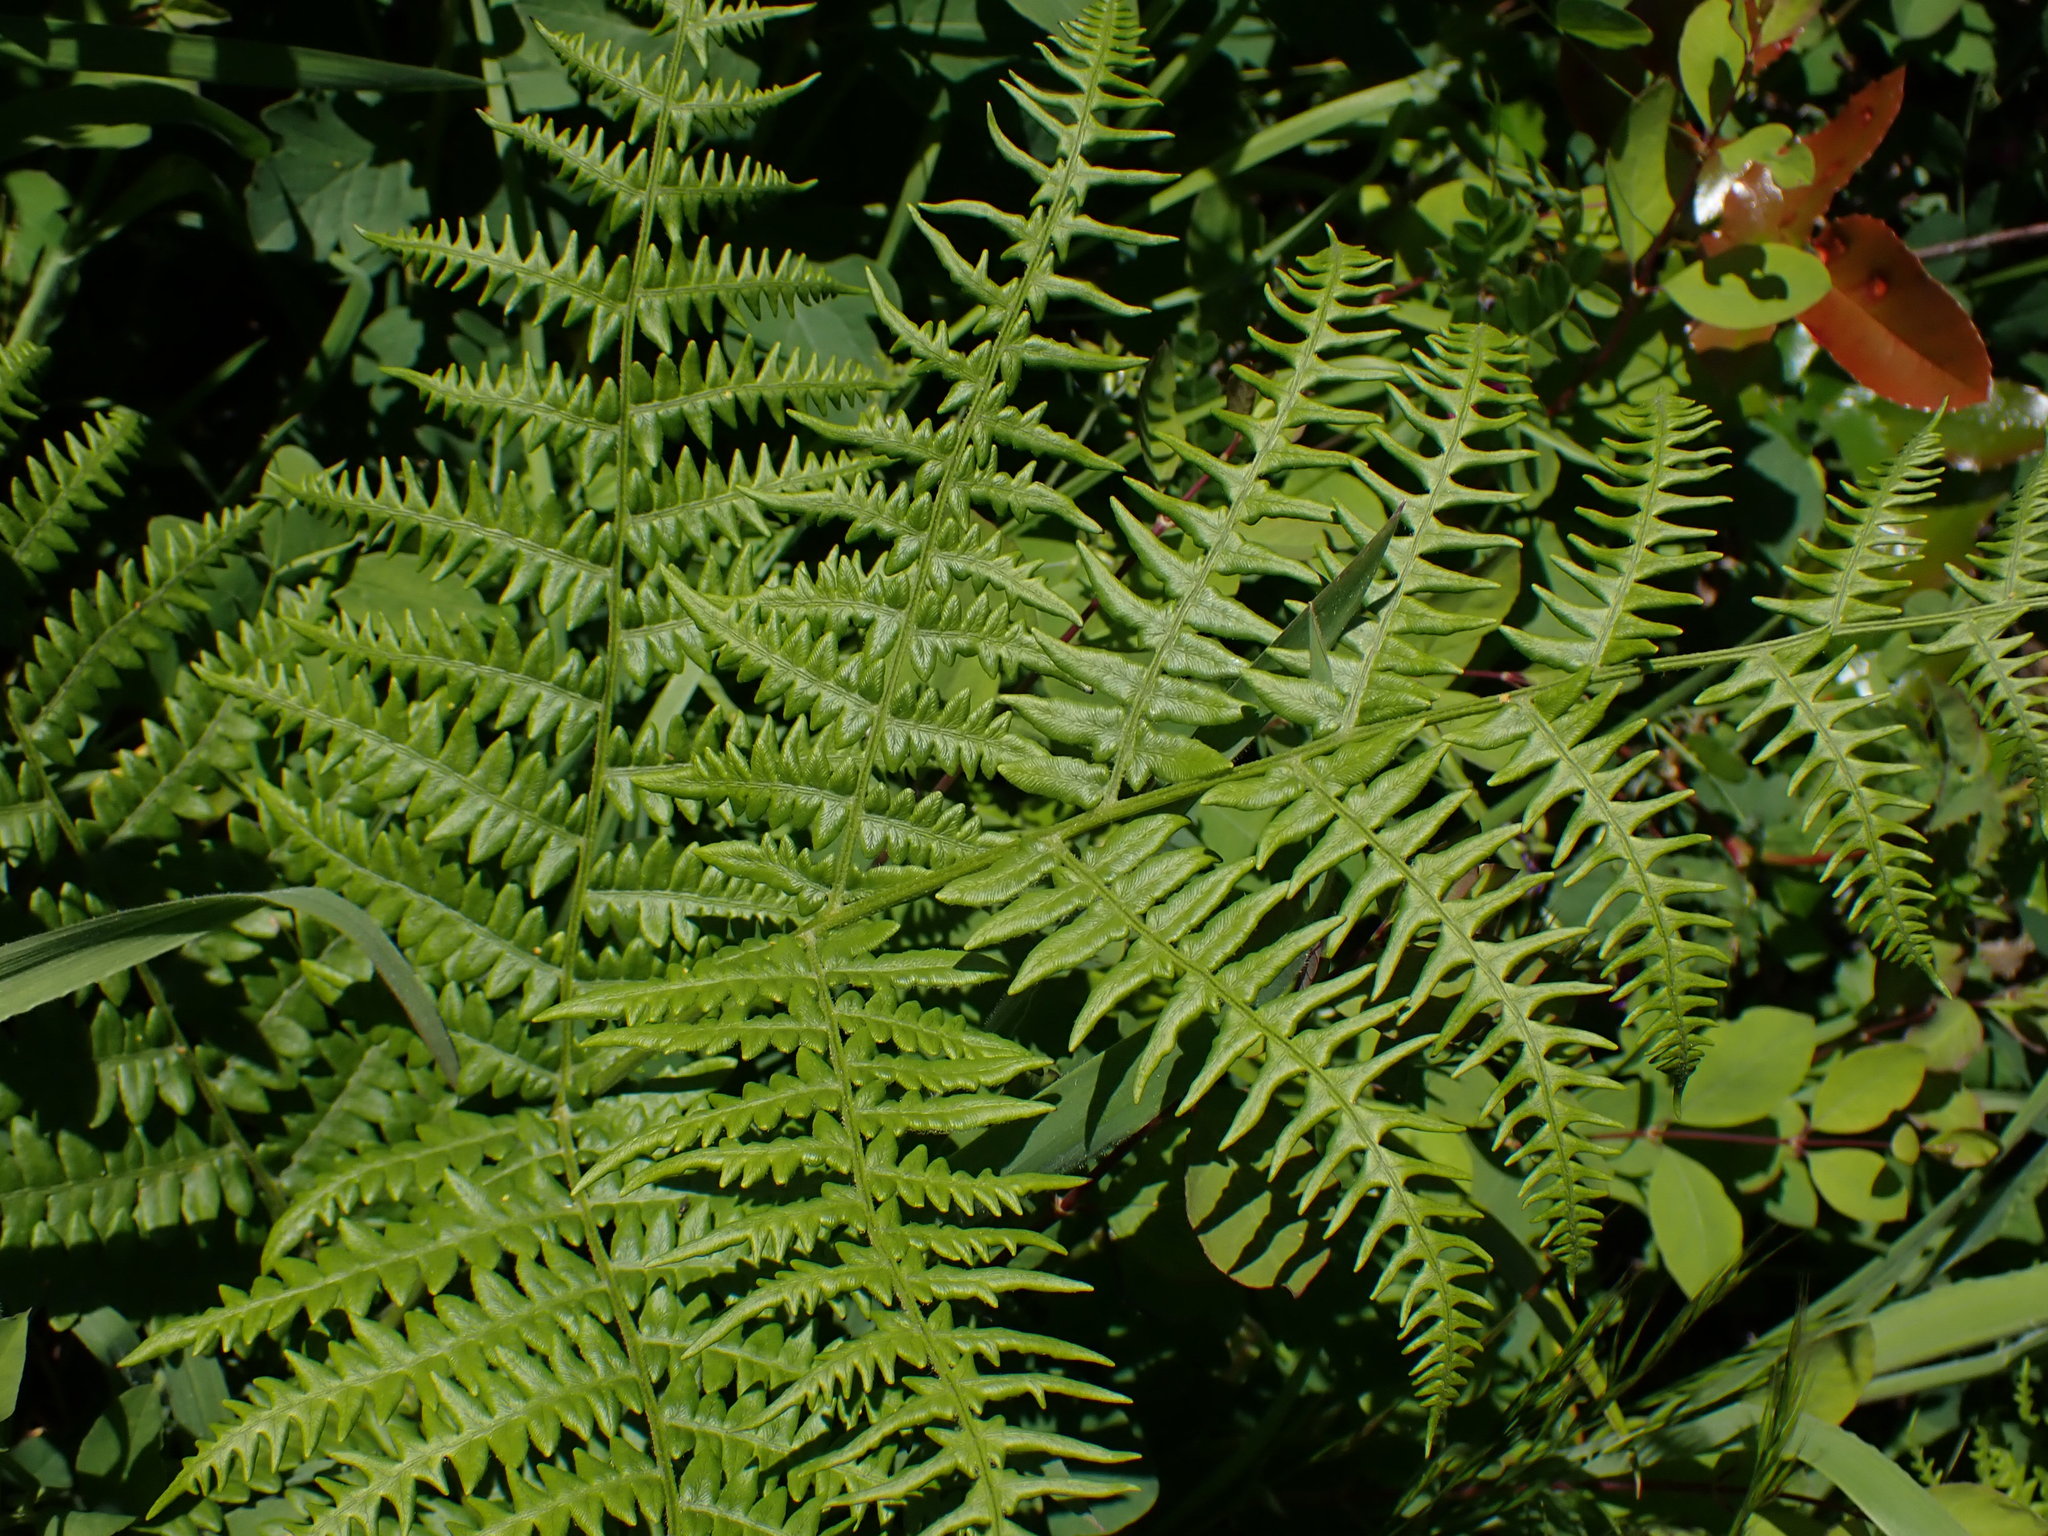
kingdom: Plantae
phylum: Tracheophyta
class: Polypodiopsida
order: Polypodiales
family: Dennstaedtiaceae
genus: Pteridium
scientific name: Pteridium aquilinum
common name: Bracken
